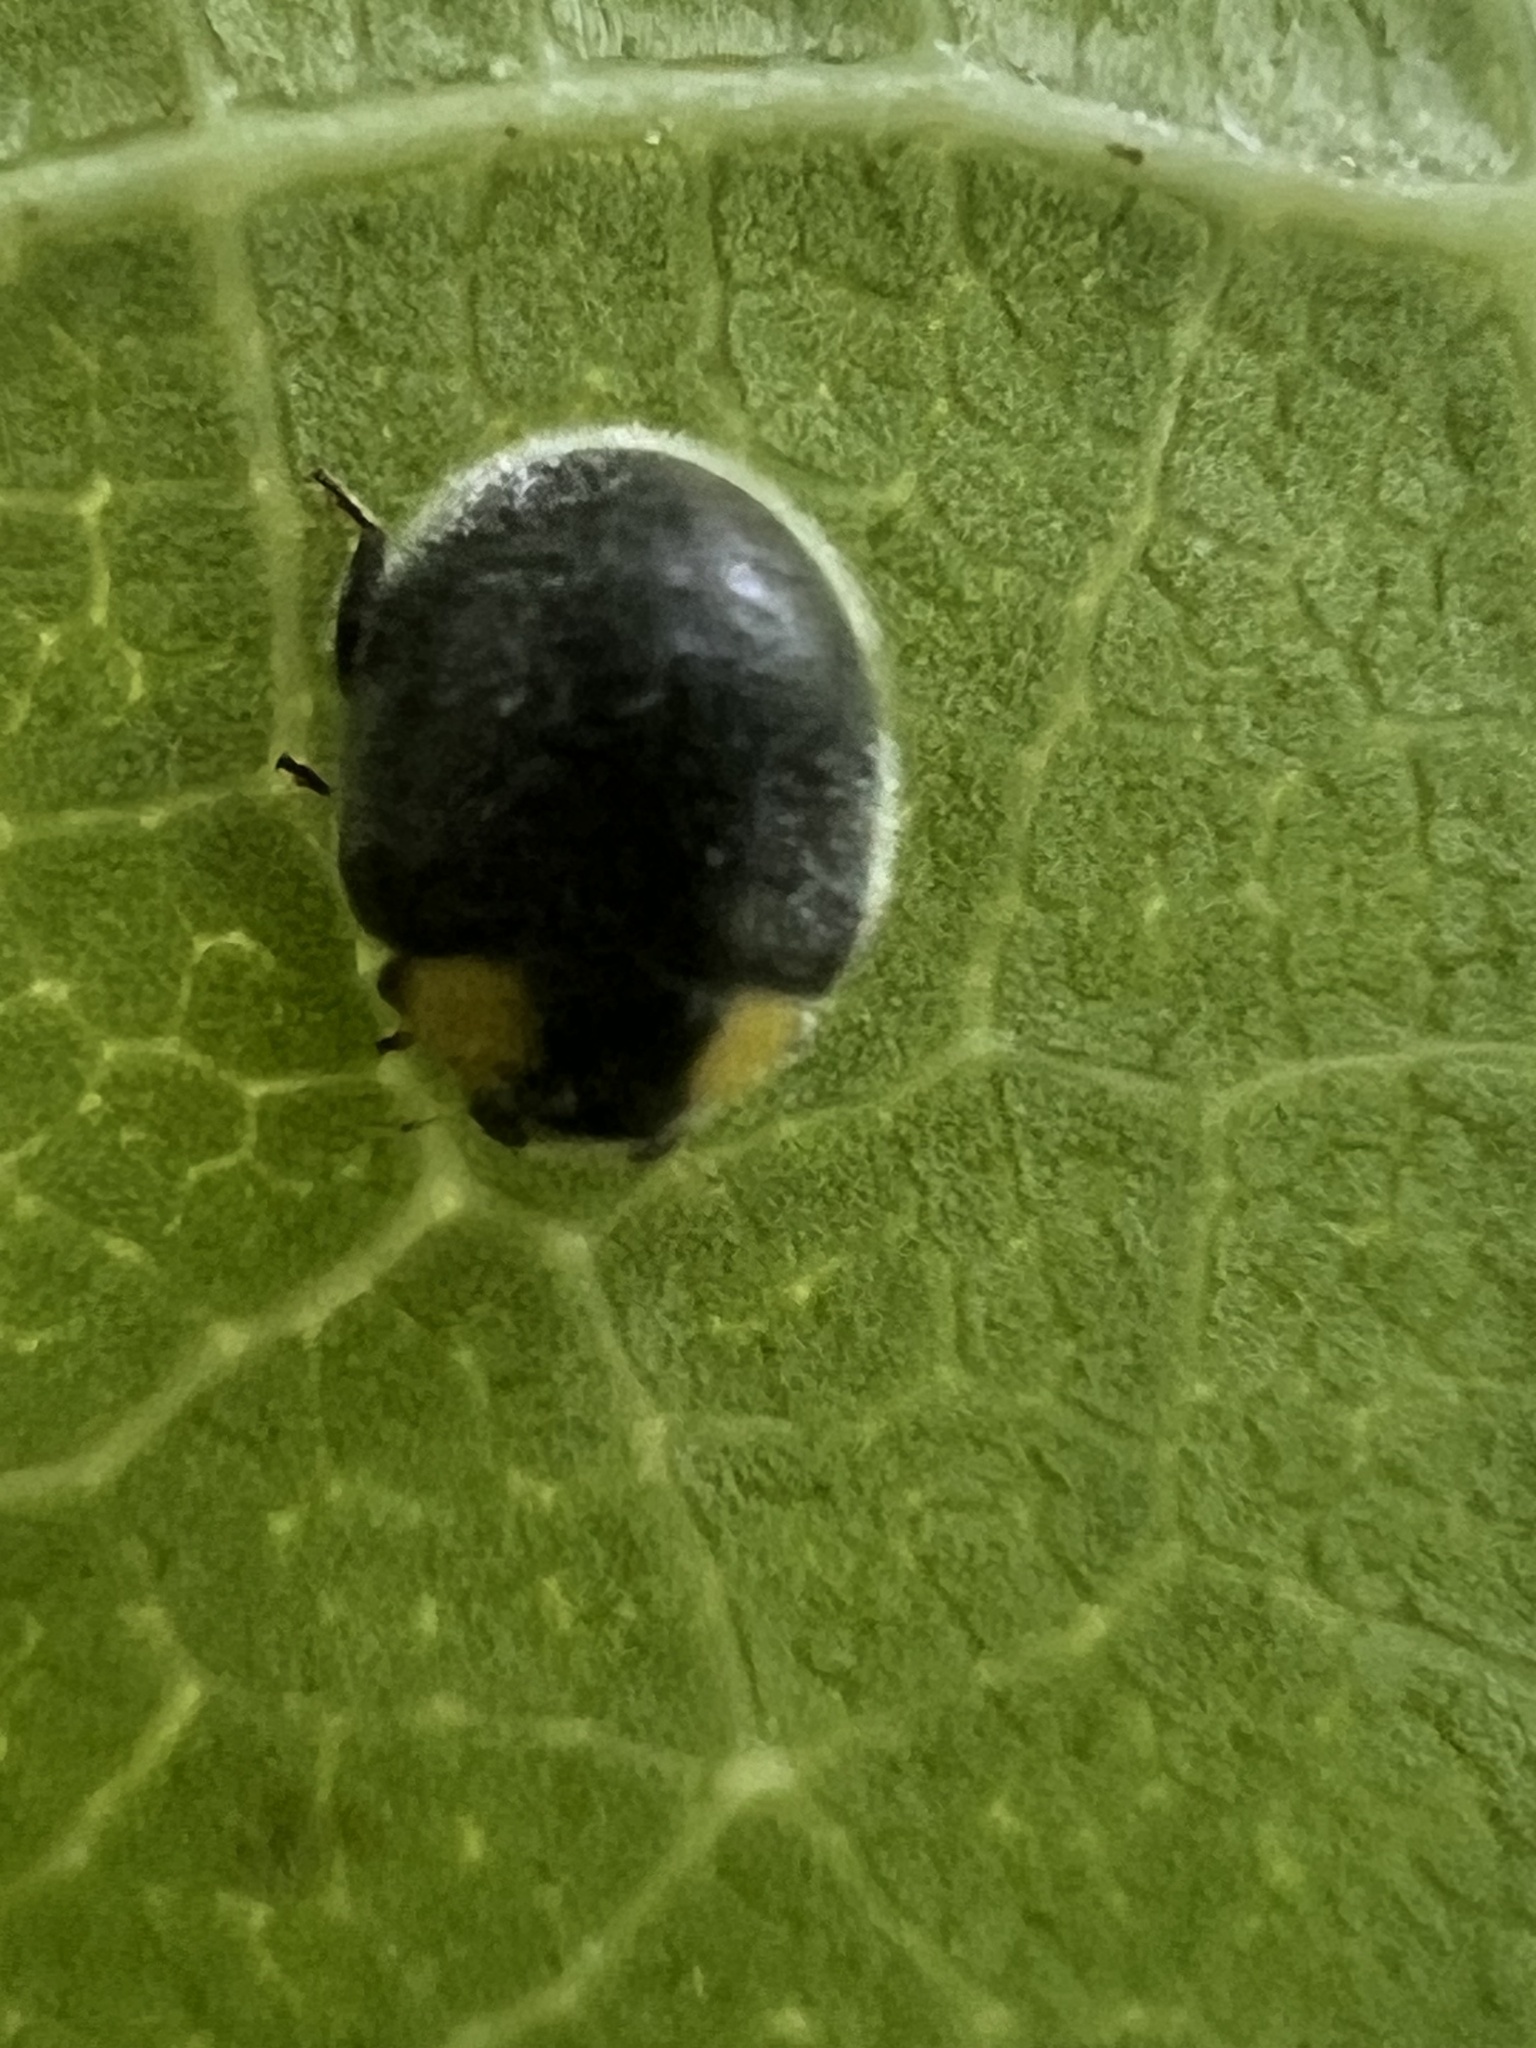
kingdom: Animalia
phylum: Arthropoda
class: Insecta
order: Coleoptera
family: Coccinellidae
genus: Scymnodes
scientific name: Scymnodes lividigaster
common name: Yellowshouldered lady beetle
